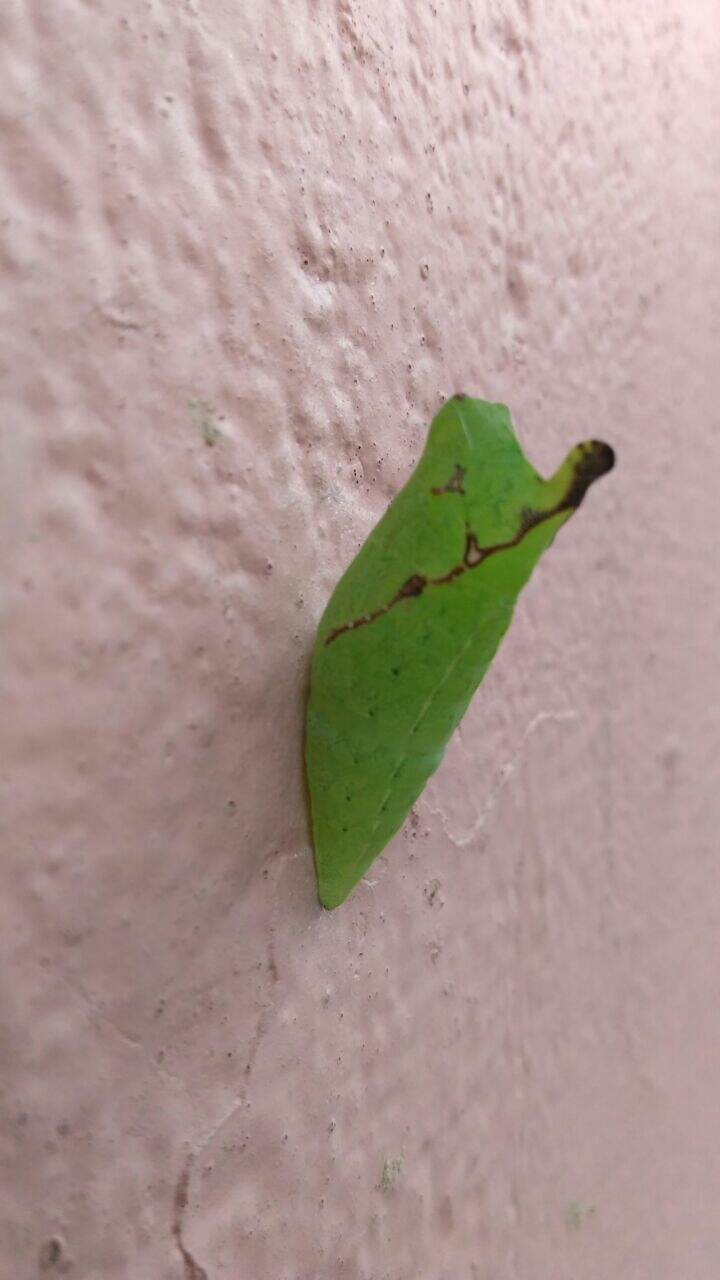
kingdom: Animalia
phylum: Arthropoda
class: Insecta
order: Lepidoptera
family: Papilionidae
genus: Graphium
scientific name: Graphium agamemnon
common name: Tailed jay
